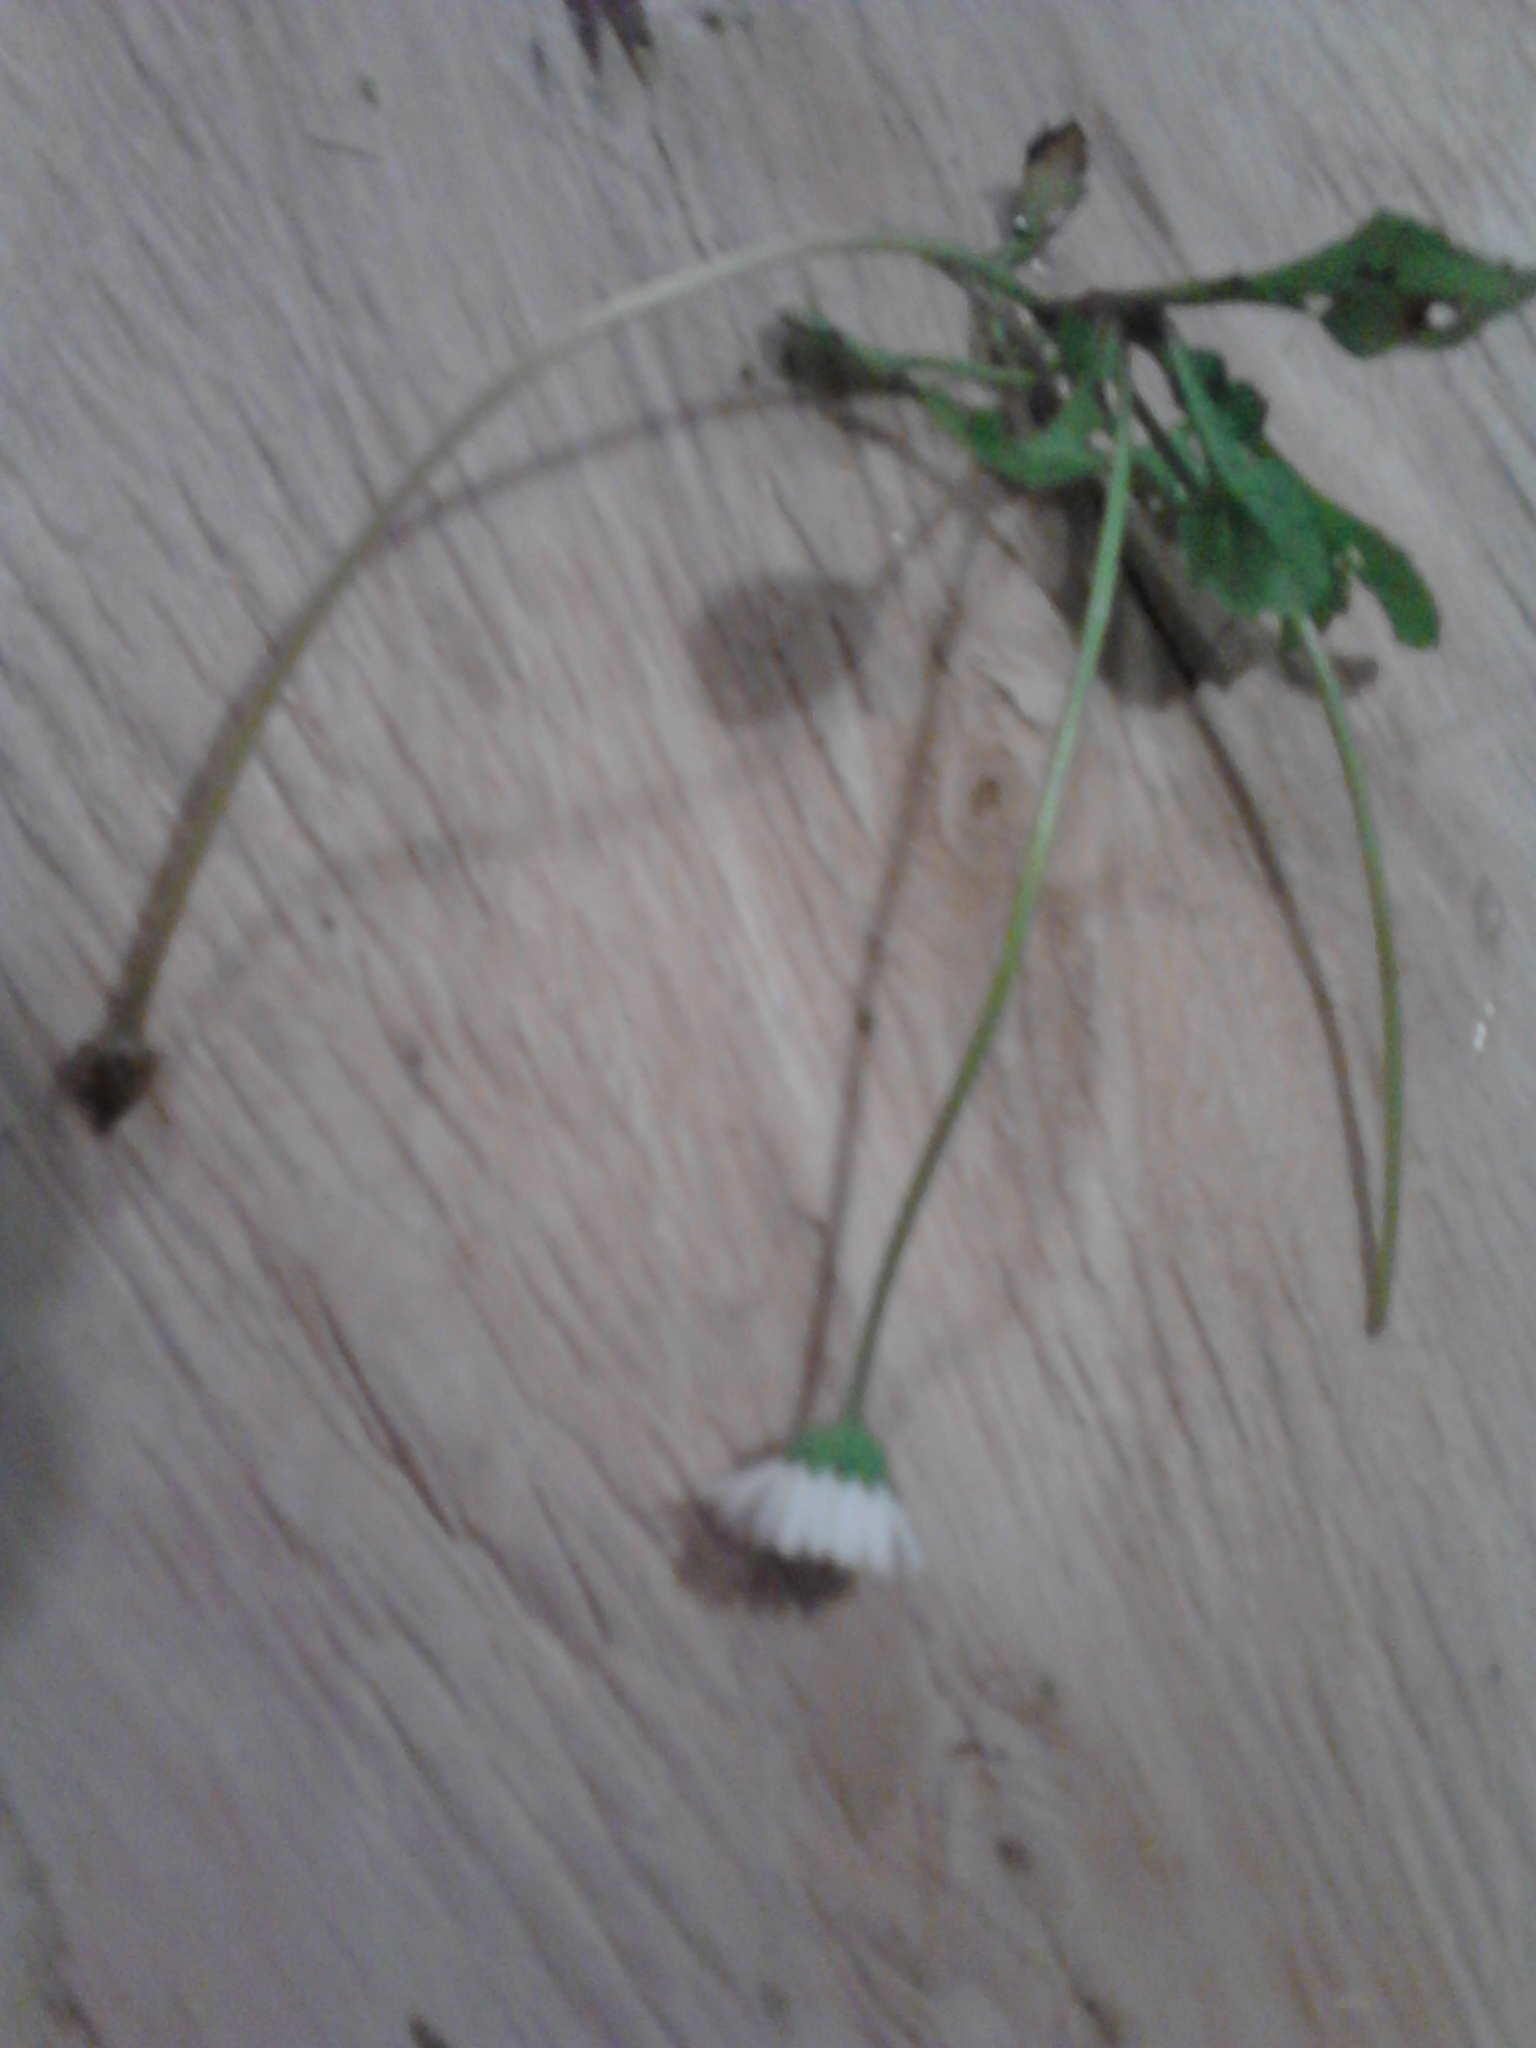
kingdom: Plantae
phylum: Tracheophyta
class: Magnoliopsida
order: Asterales
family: Asteraceae
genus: Bellis
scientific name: Bellis perennis
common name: Lawndaisy
